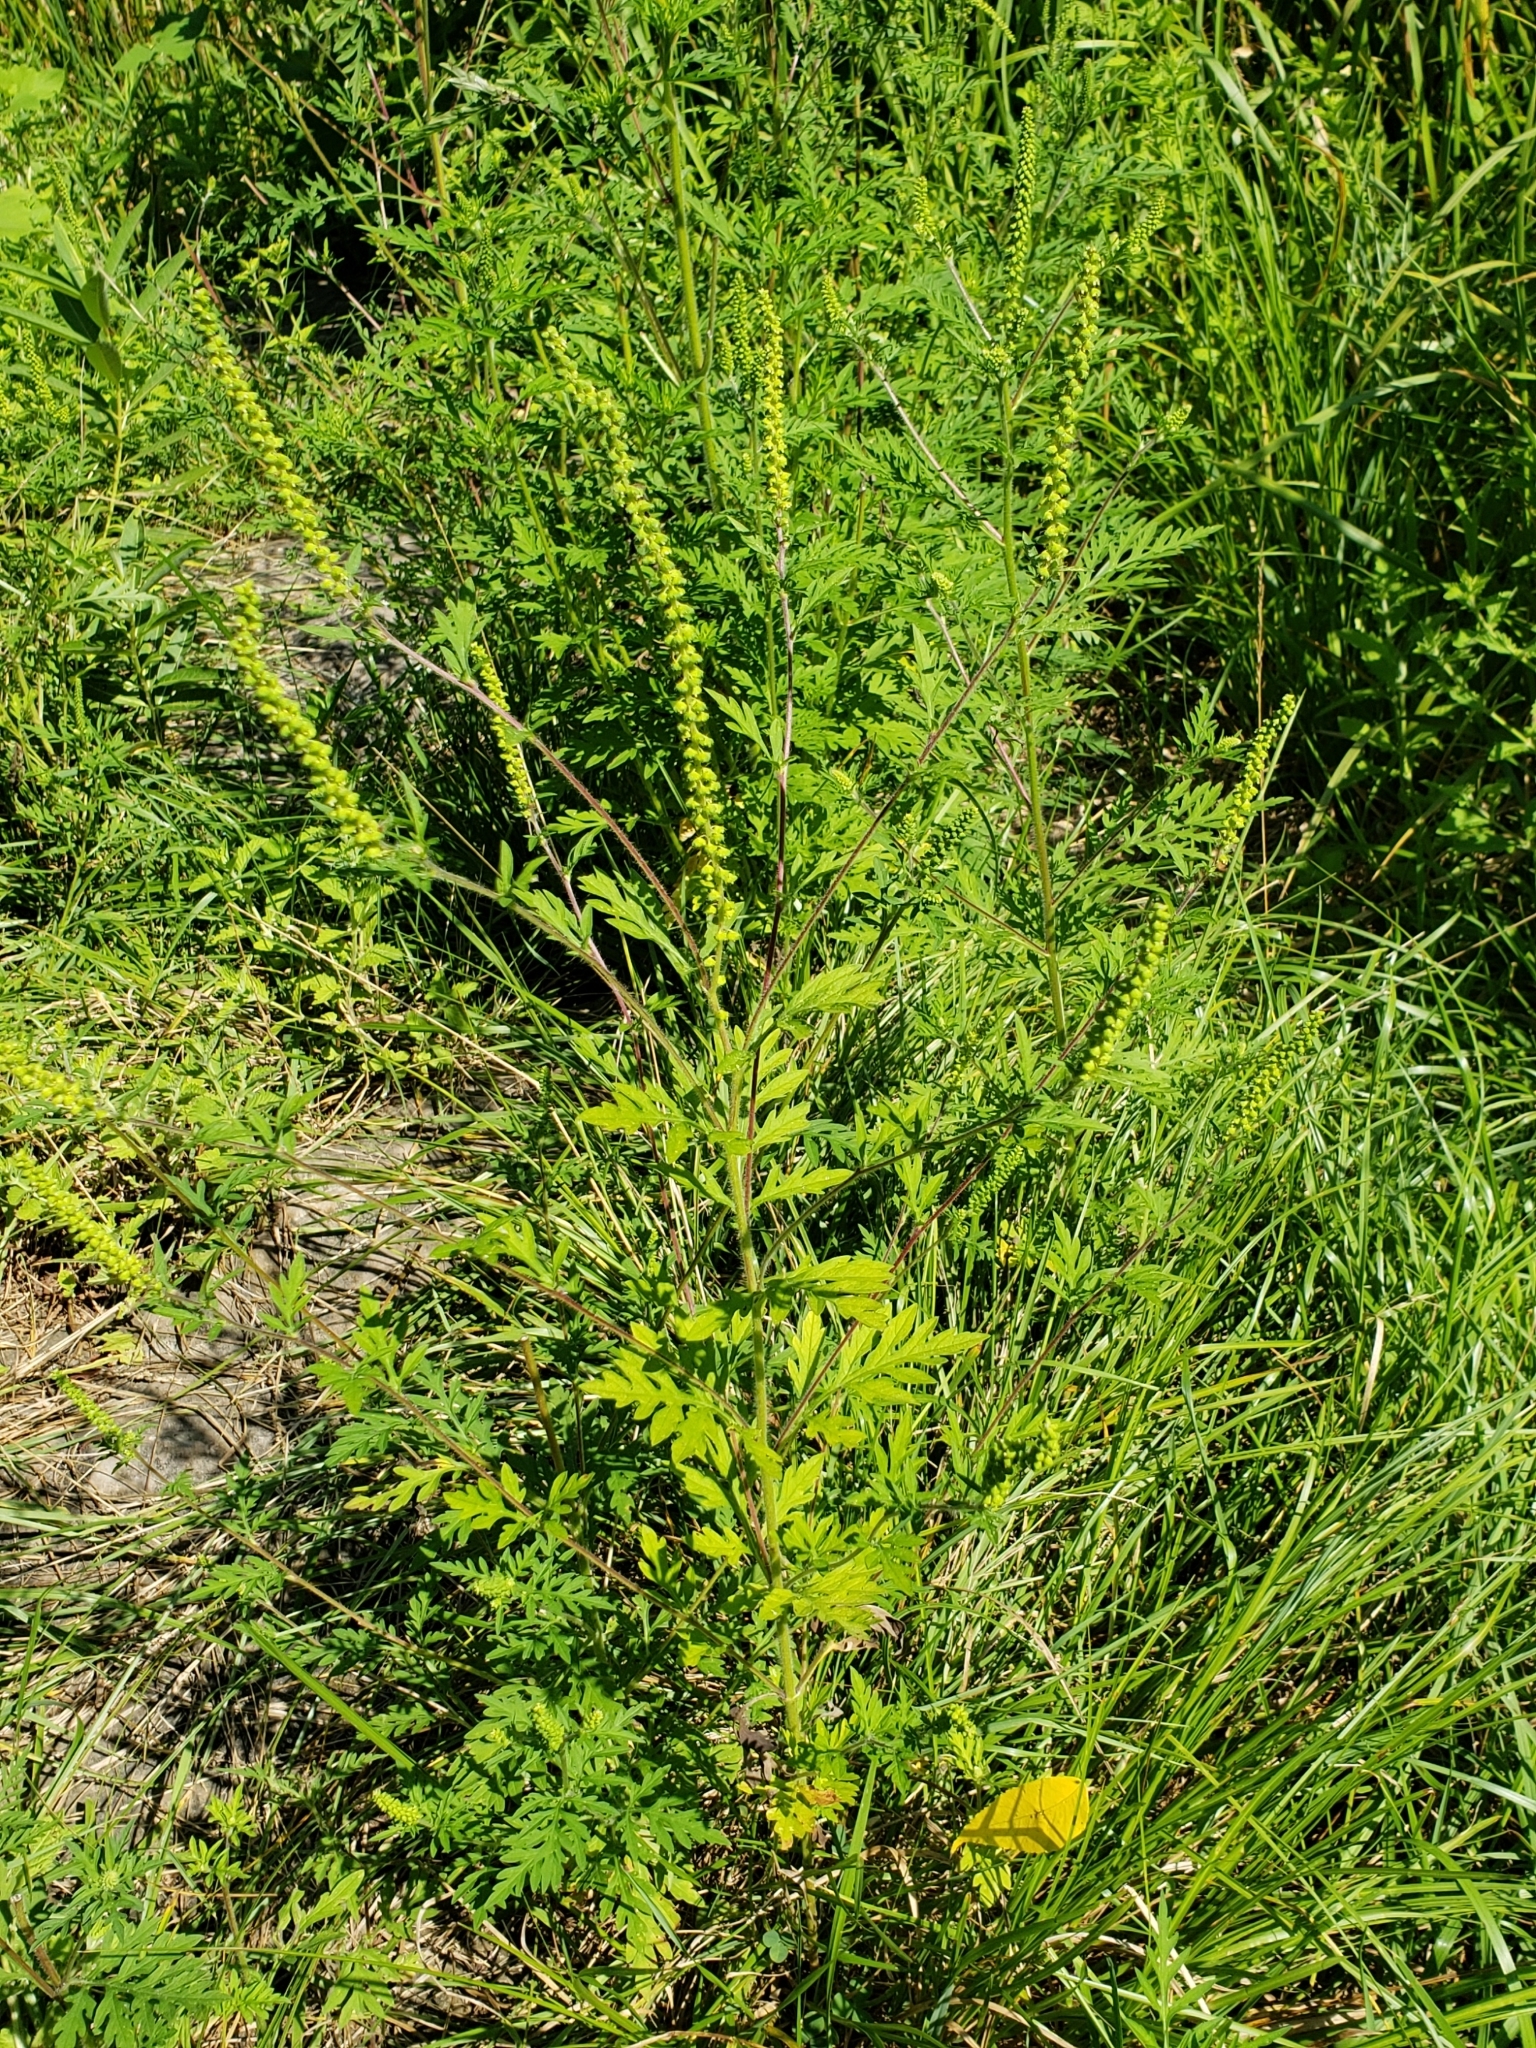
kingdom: Plantae
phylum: Tracheophyta
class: Magnoliopsida
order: Asterales
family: Asteraceae
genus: Ambrosia
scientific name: Ambrosia artemisiifolia
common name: Annual ragweed
